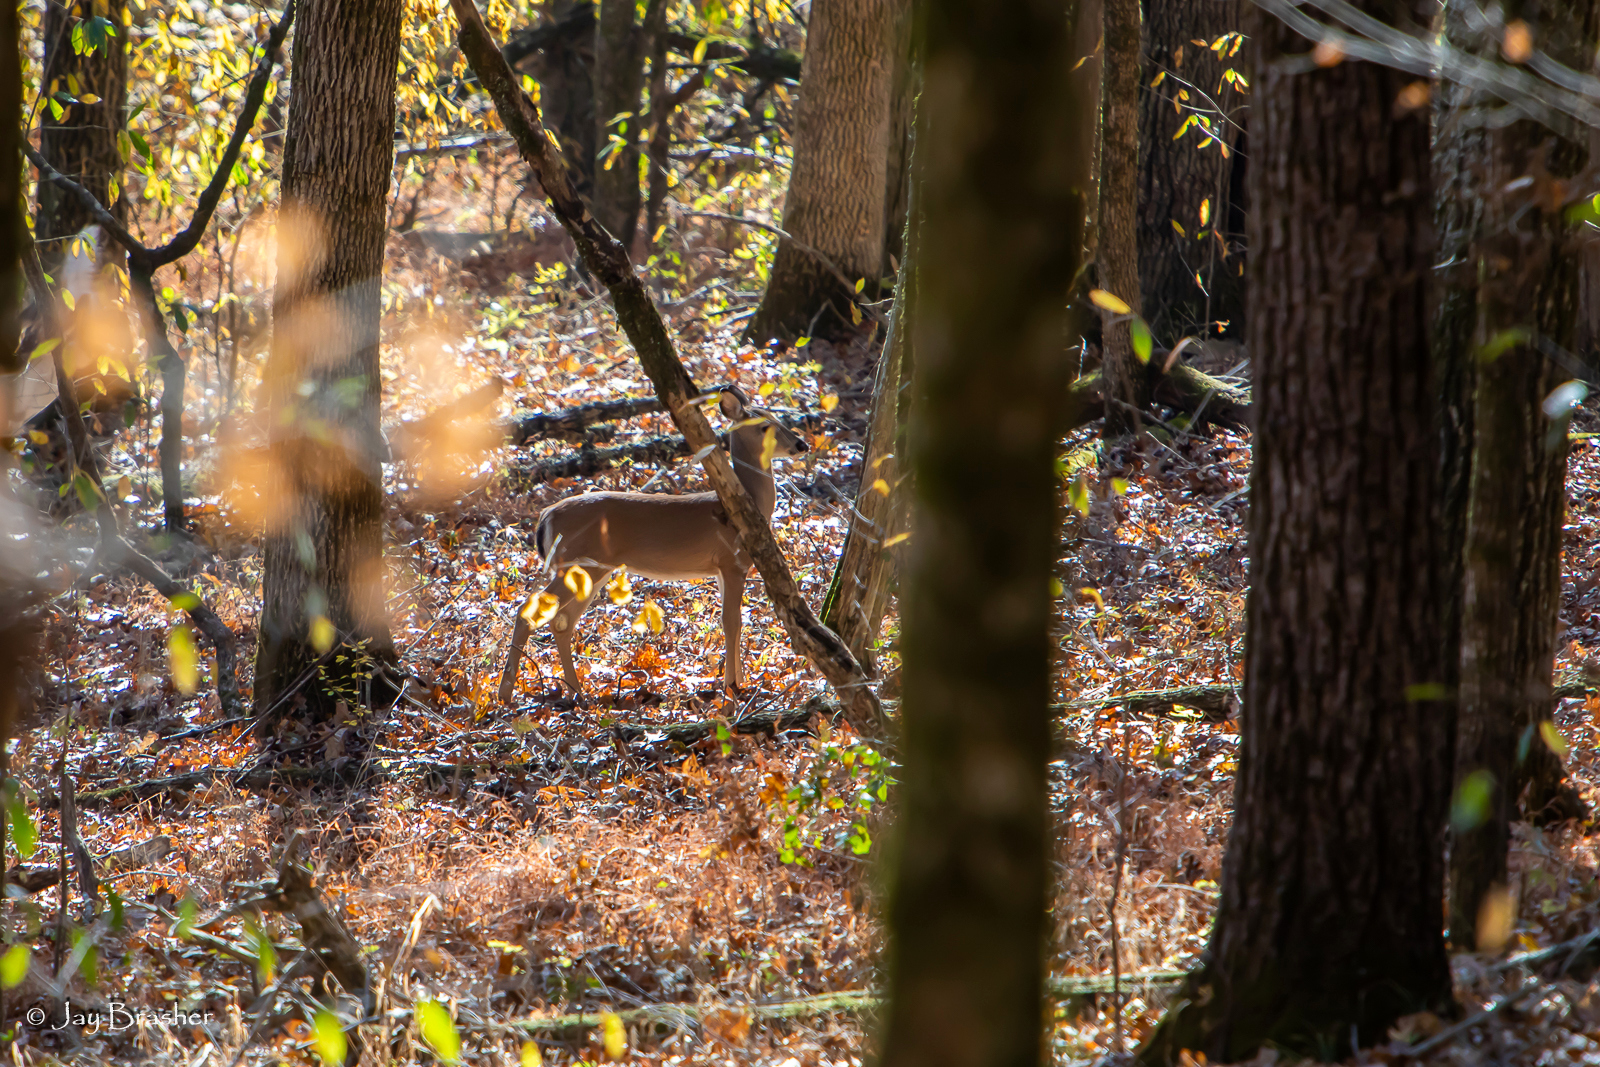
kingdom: Animalia
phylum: Chordata
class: Mammalia
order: Artiodactyla
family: Cervidae
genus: Odocoileus
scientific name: Odocoileus virginianus
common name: White-tailed deer
